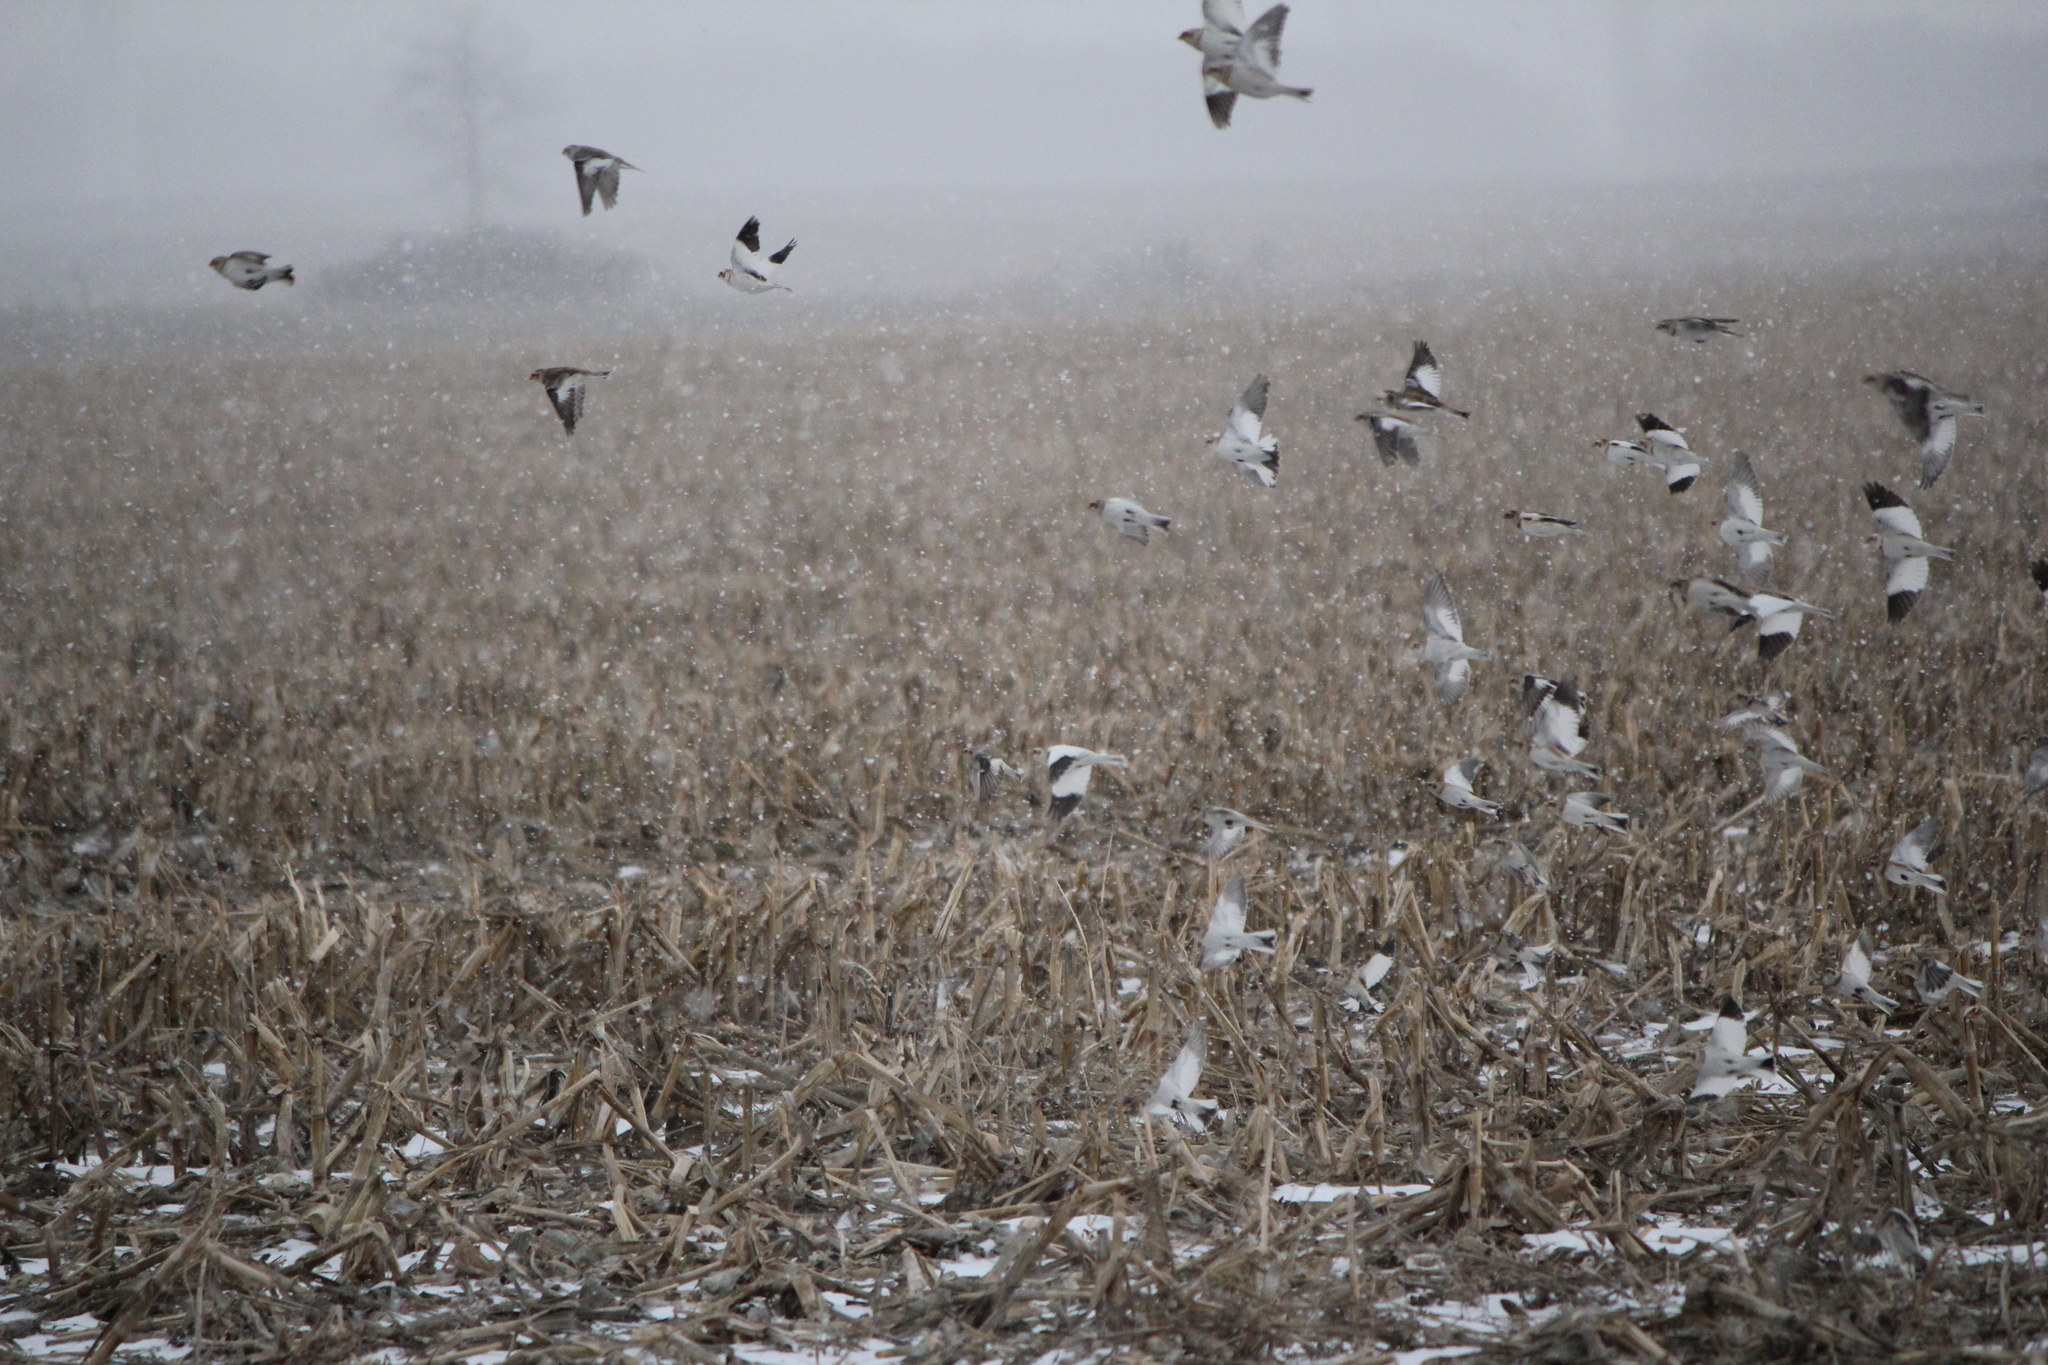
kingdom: Animalia
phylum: Chordata
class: Aves
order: Passeriformes
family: Calcariidae
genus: Plectrophenax
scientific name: Plectrophenax nivalis
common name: Snow bunting
